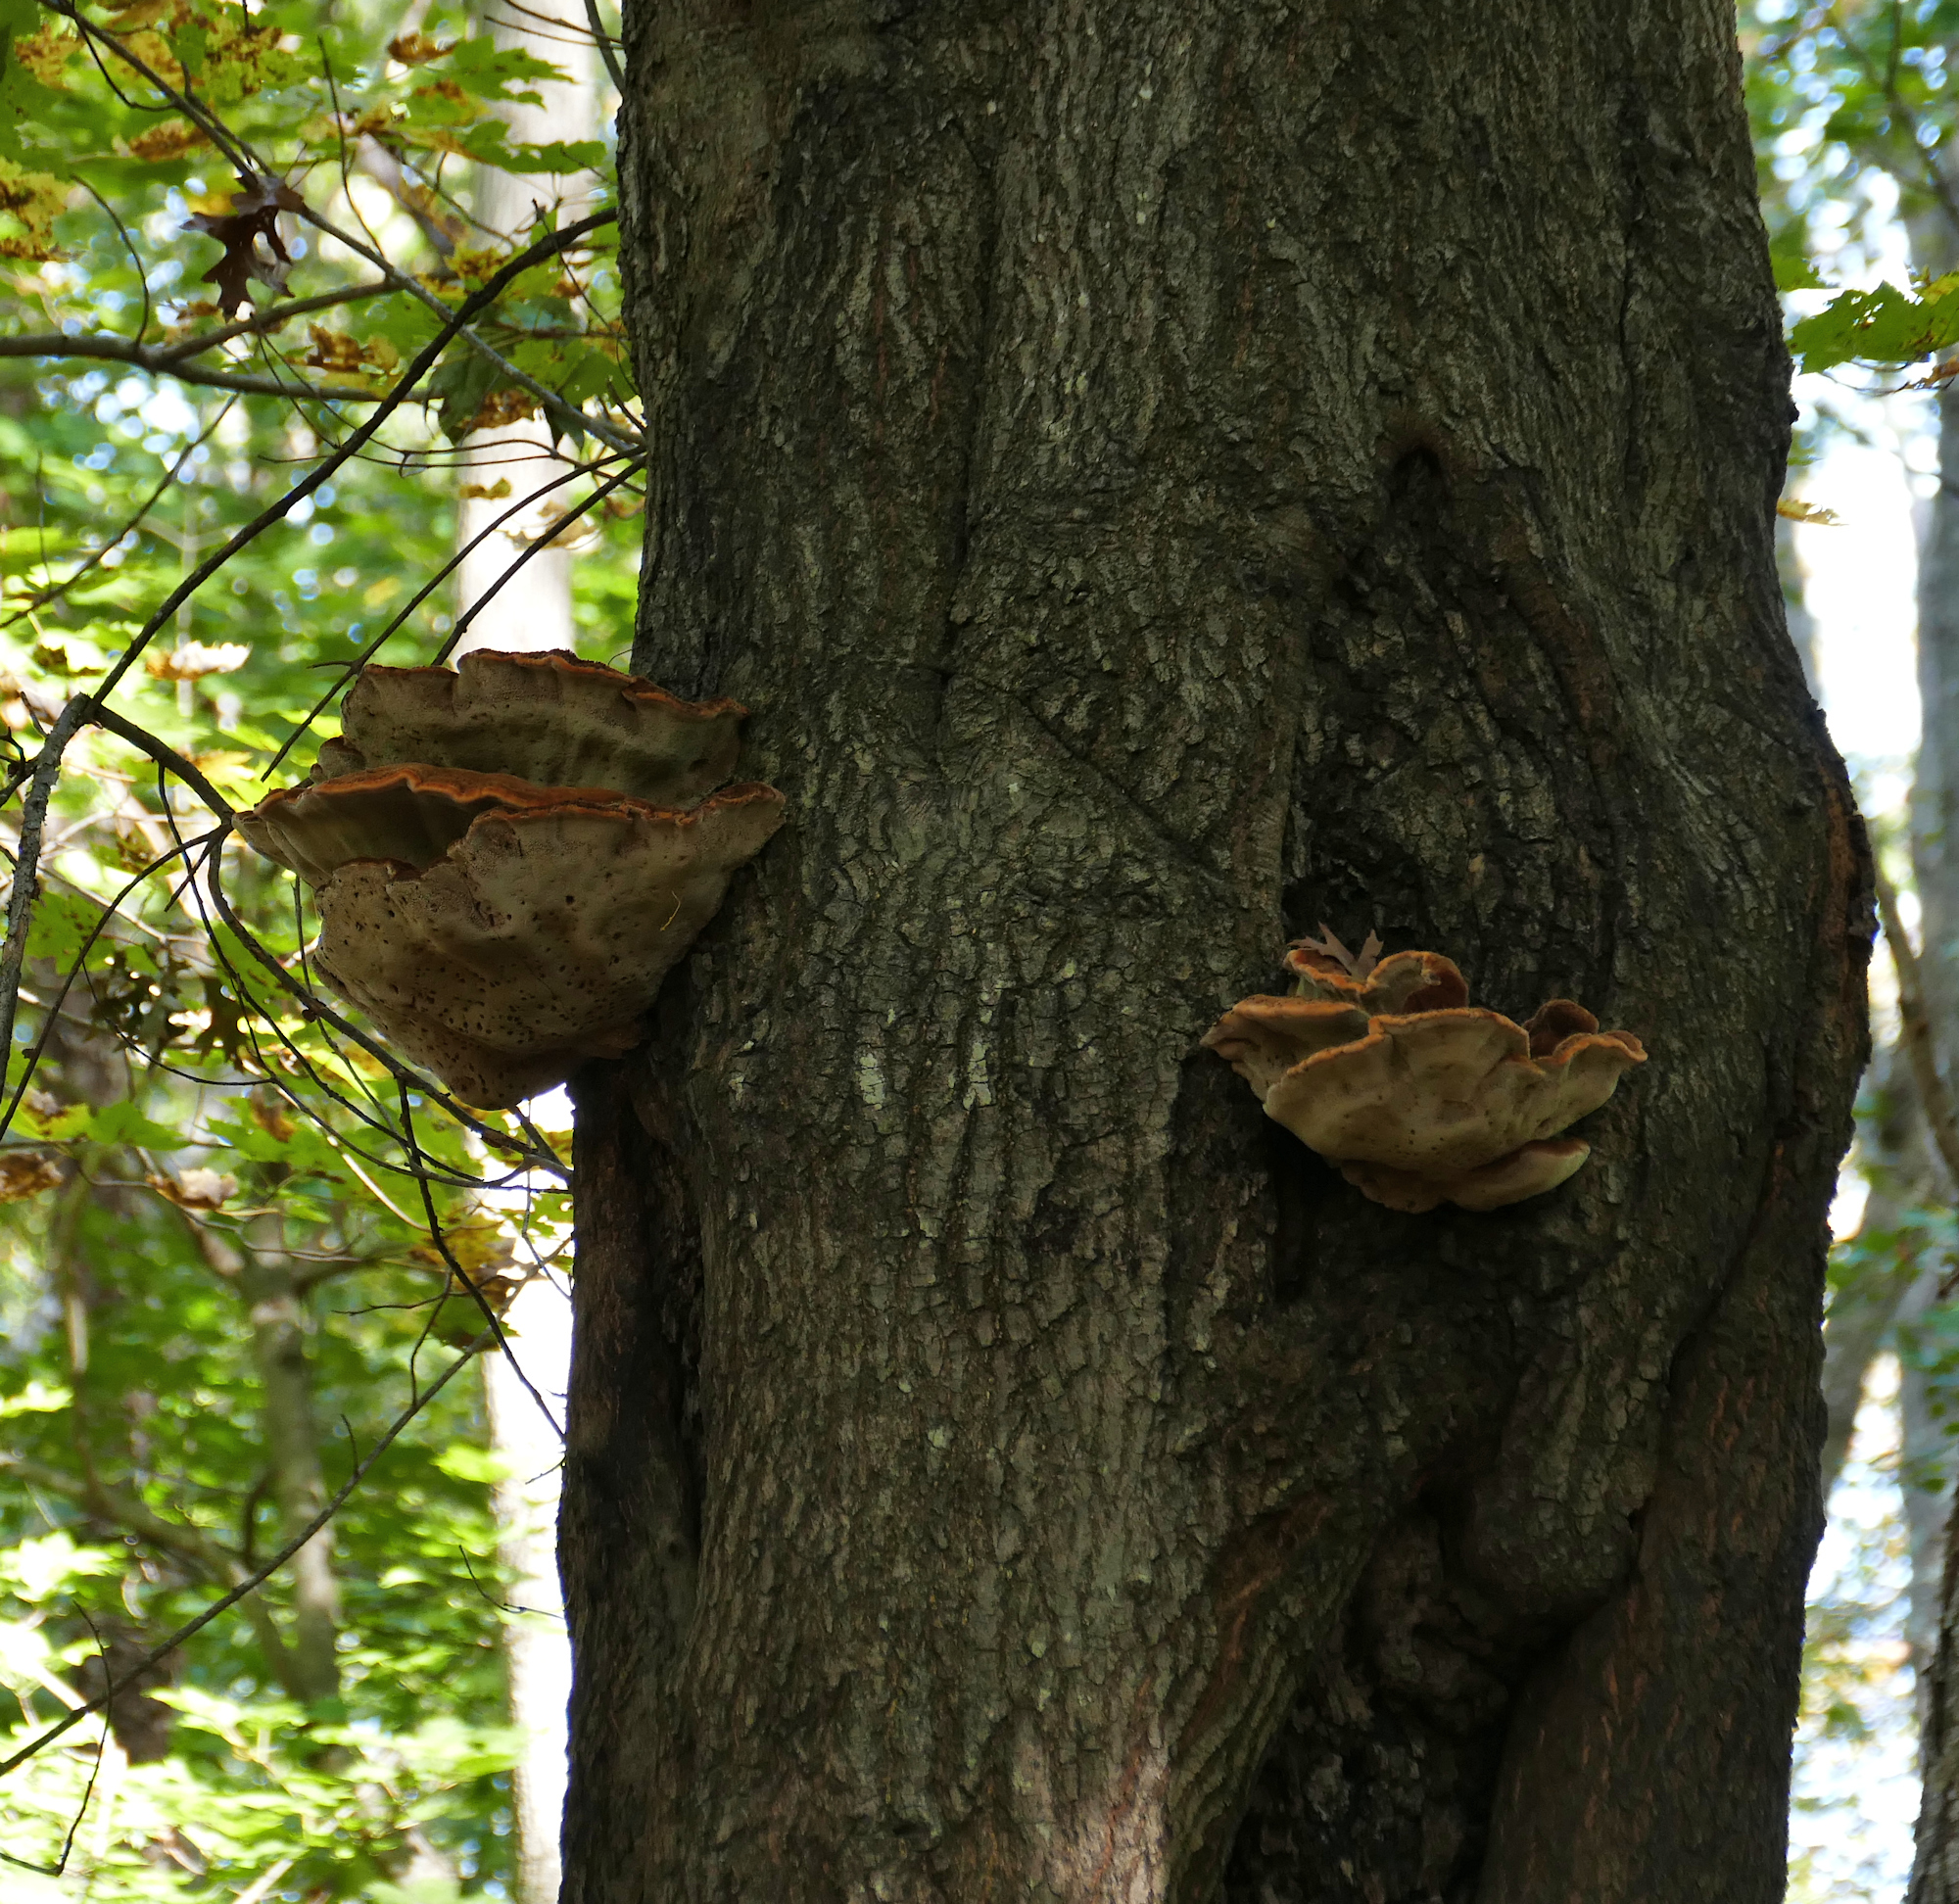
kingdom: Fungi
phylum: Basidiomycota
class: Agaricomycetes
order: Hymenochaetales
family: Hymenochaetaceae
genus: Inonotus
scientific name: Inonotus hispidus
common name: Shaggy bracket
